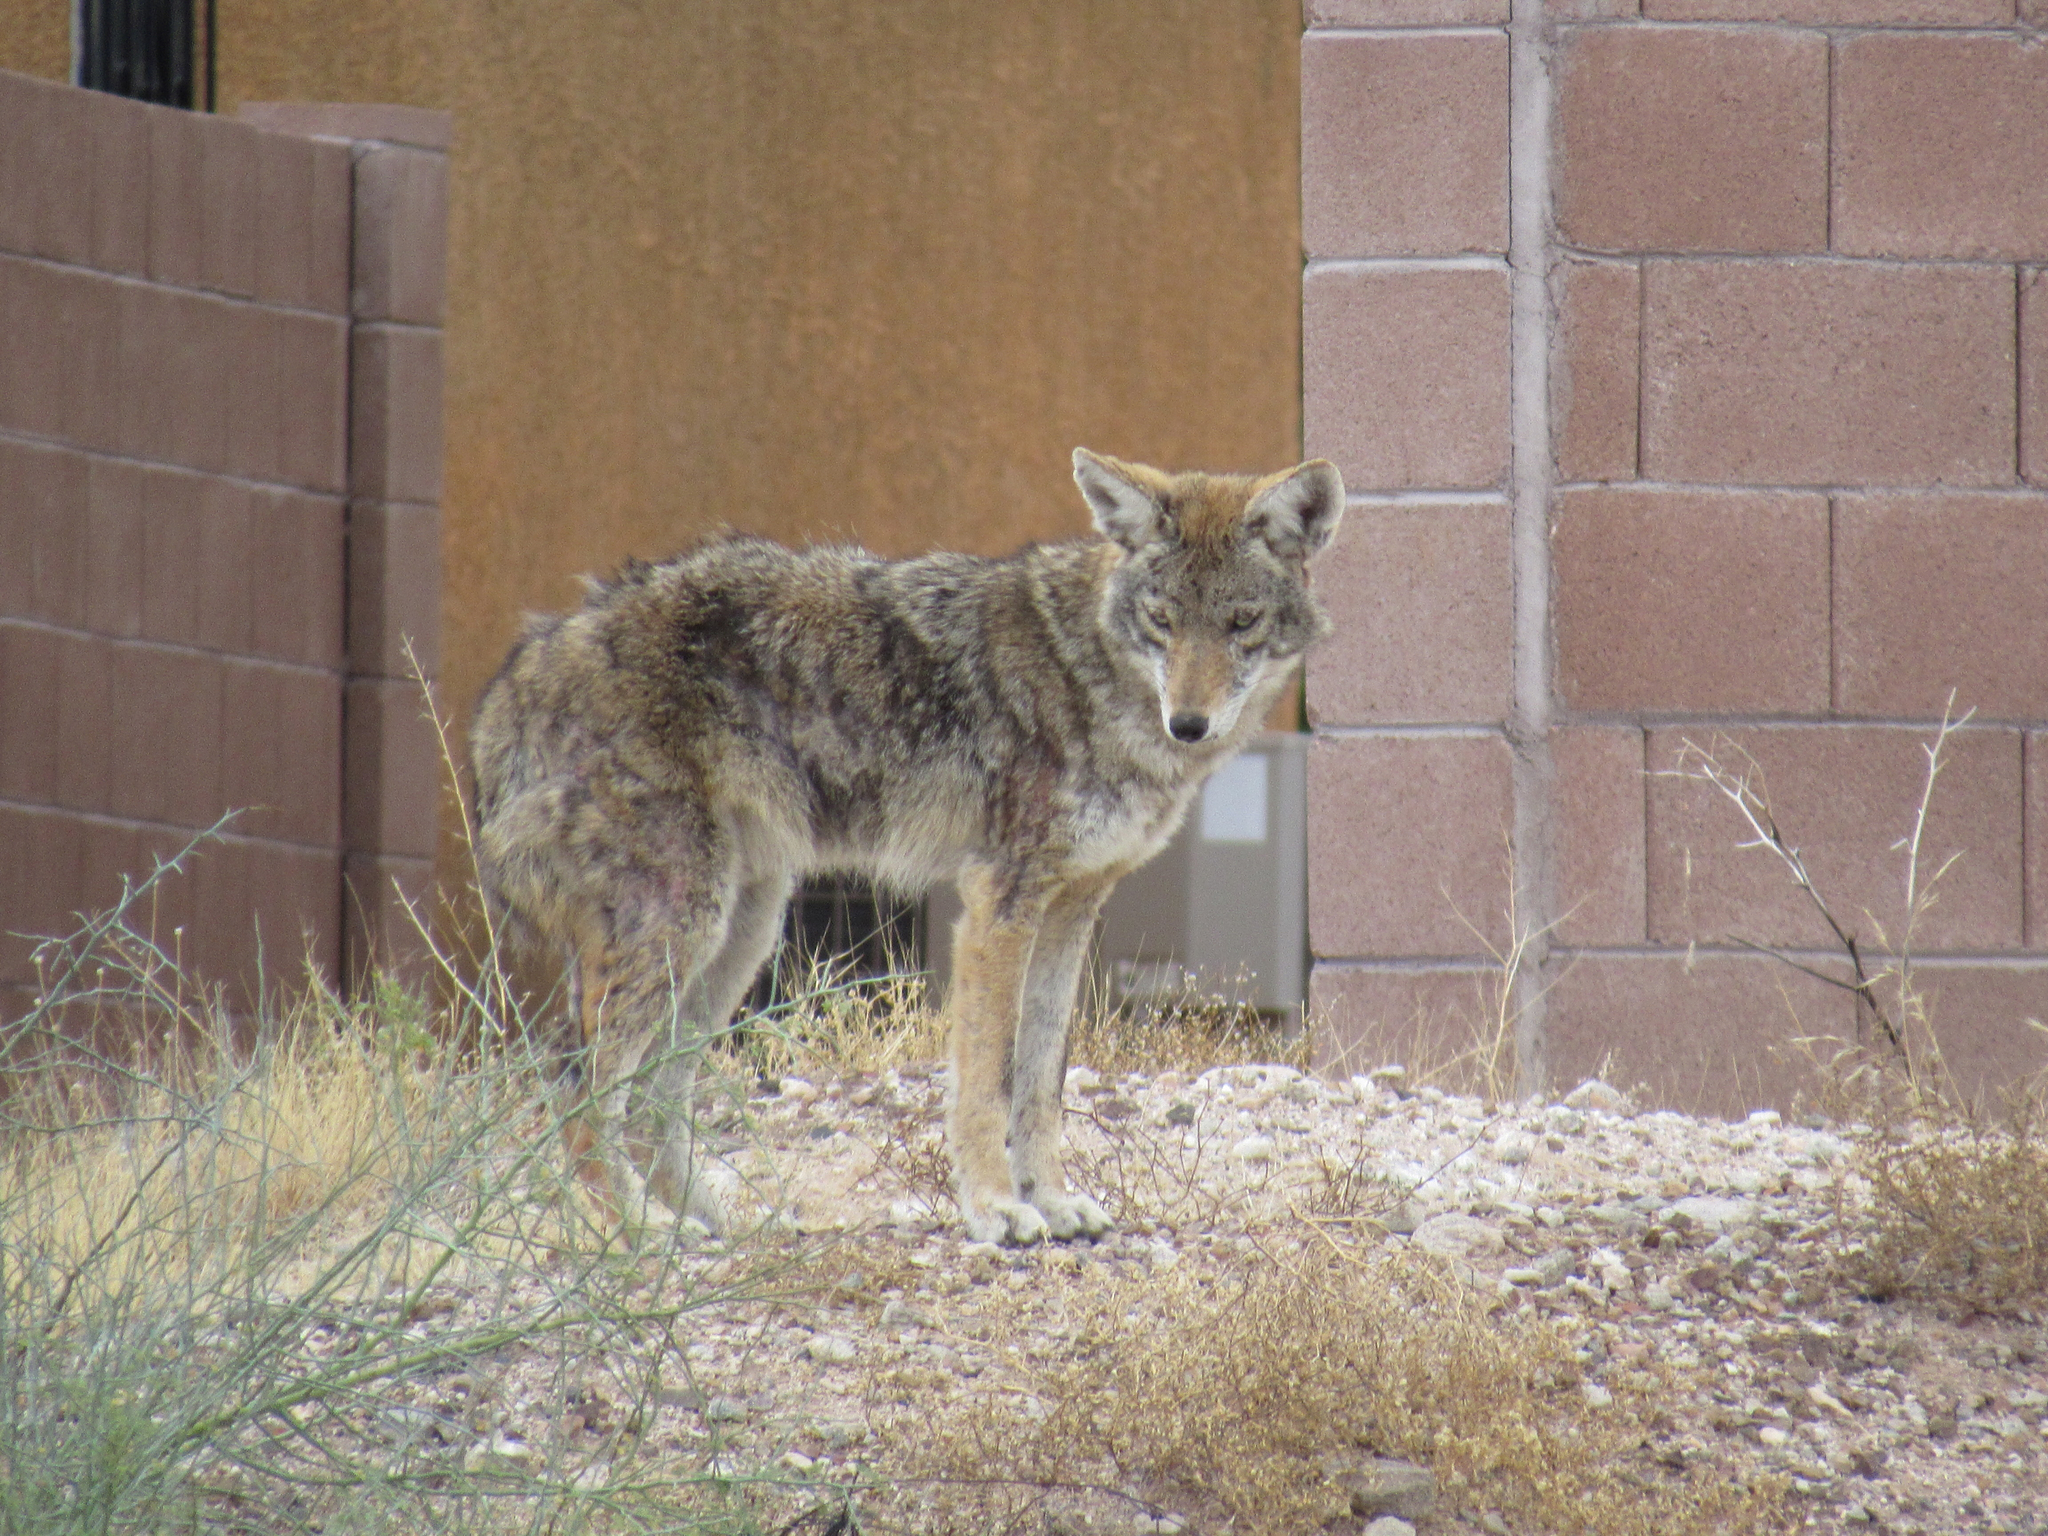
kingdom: Animalia
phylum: Chordata
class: Mammalia
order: Carnivora
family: Canidae
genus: Canis
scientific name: Canis latrans
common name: Coyote
